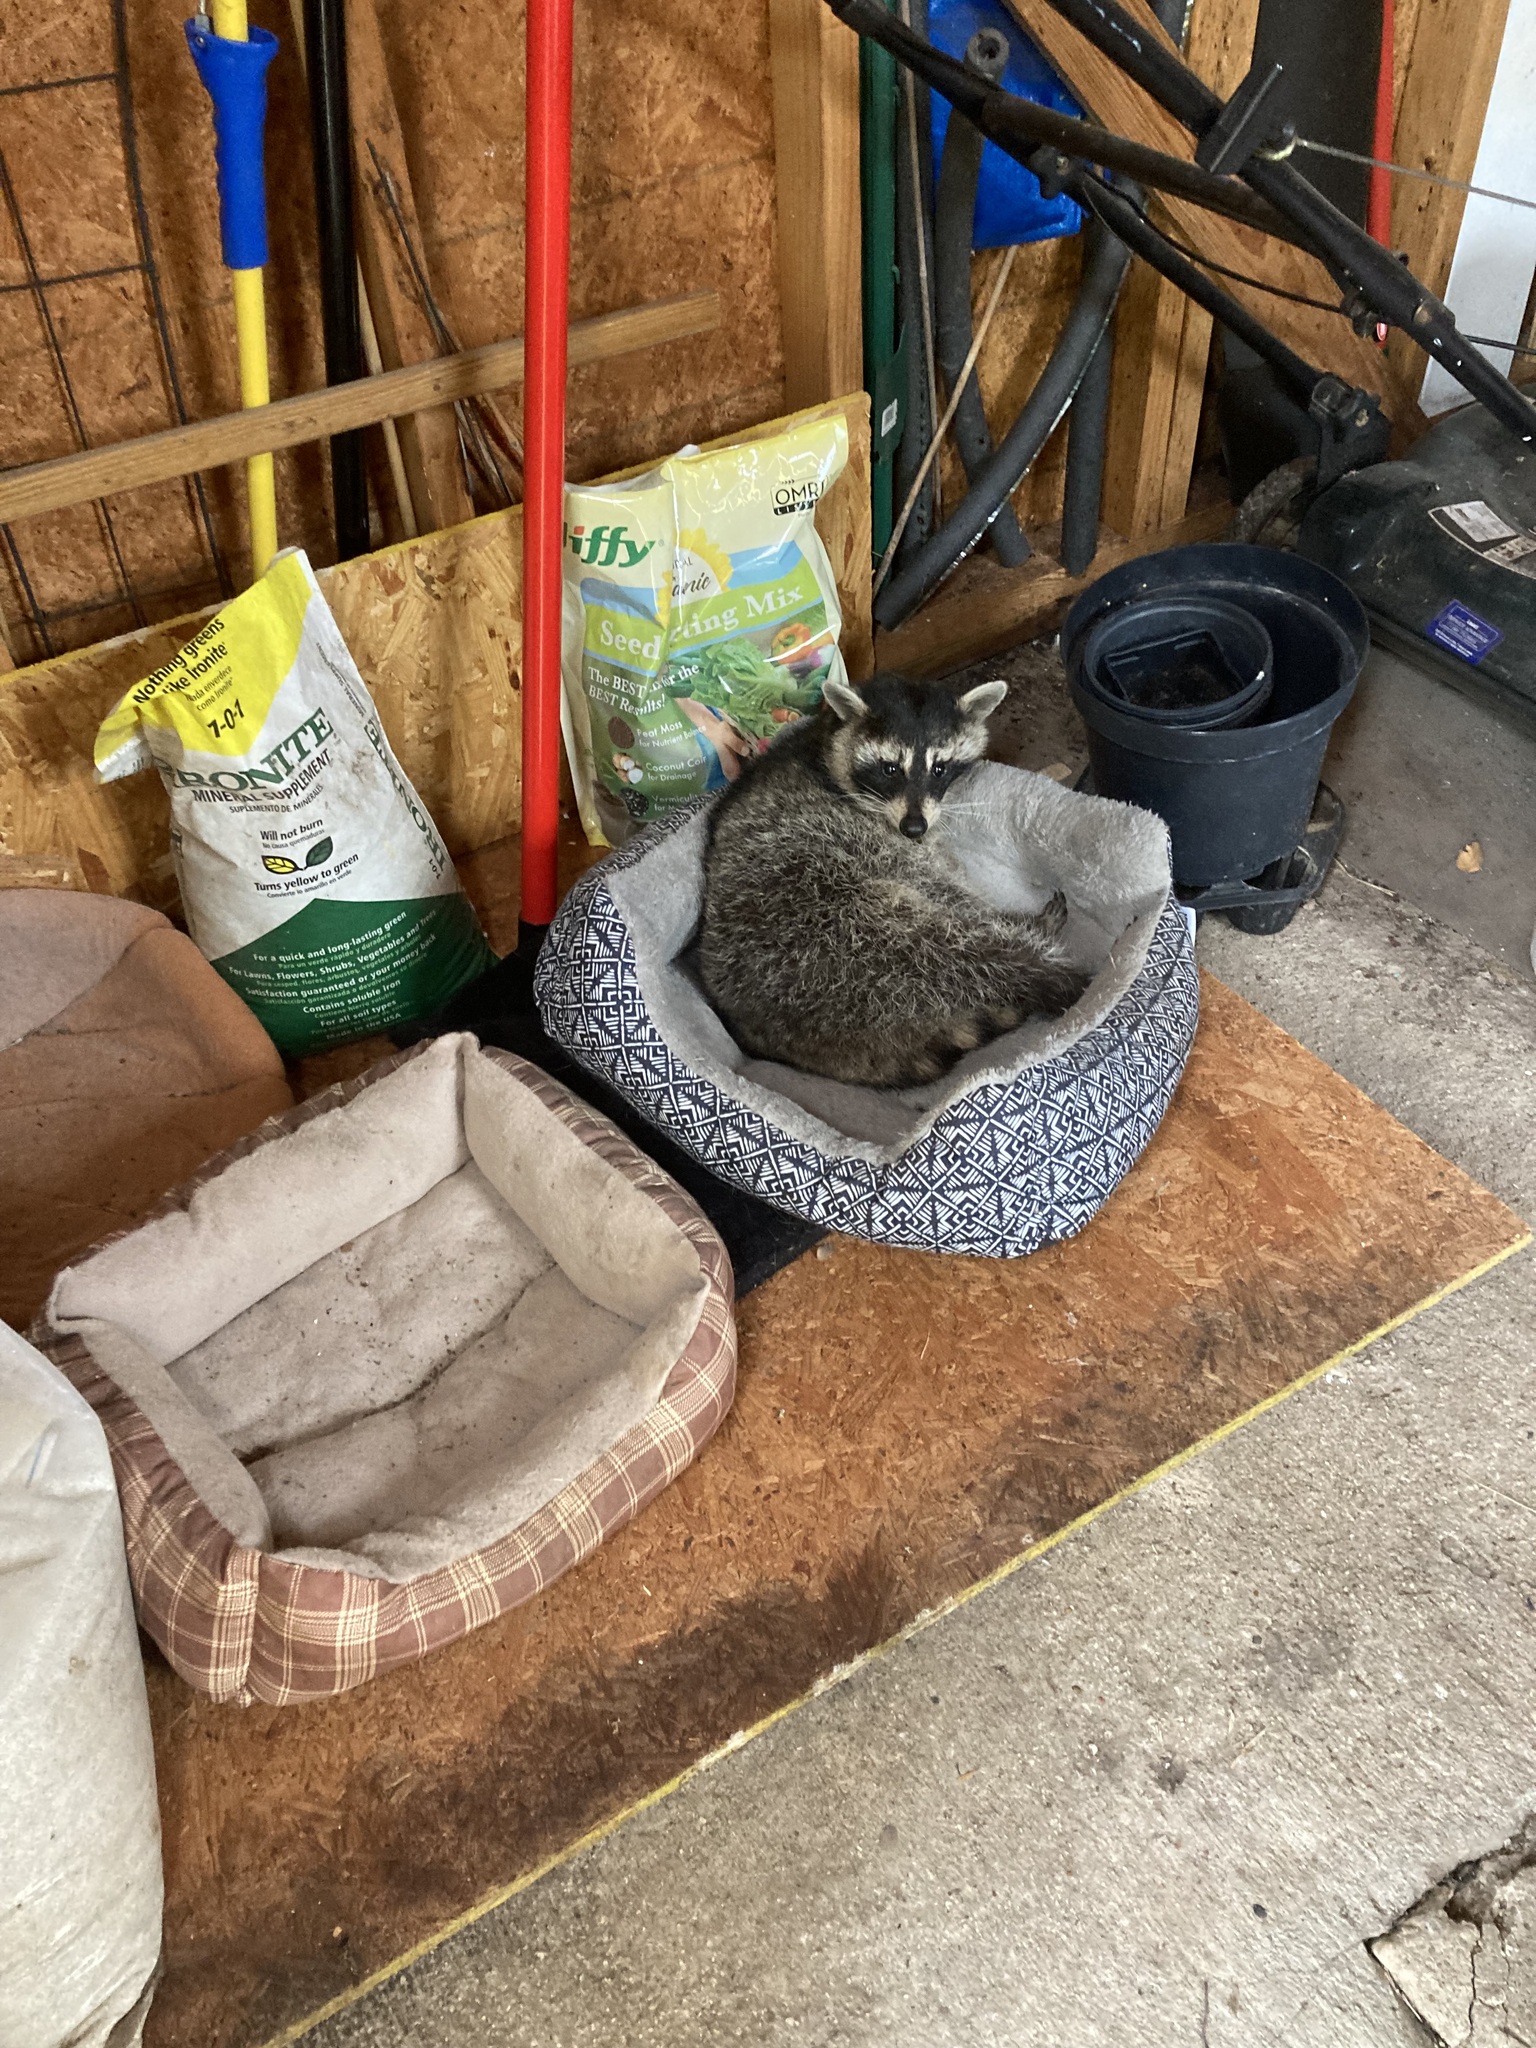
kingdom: Animalia
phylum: Chordata
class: Mammalia
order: Carnivora
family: Procyonidae
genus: Procyon
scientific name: Procyon lotor
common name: Raccoon
